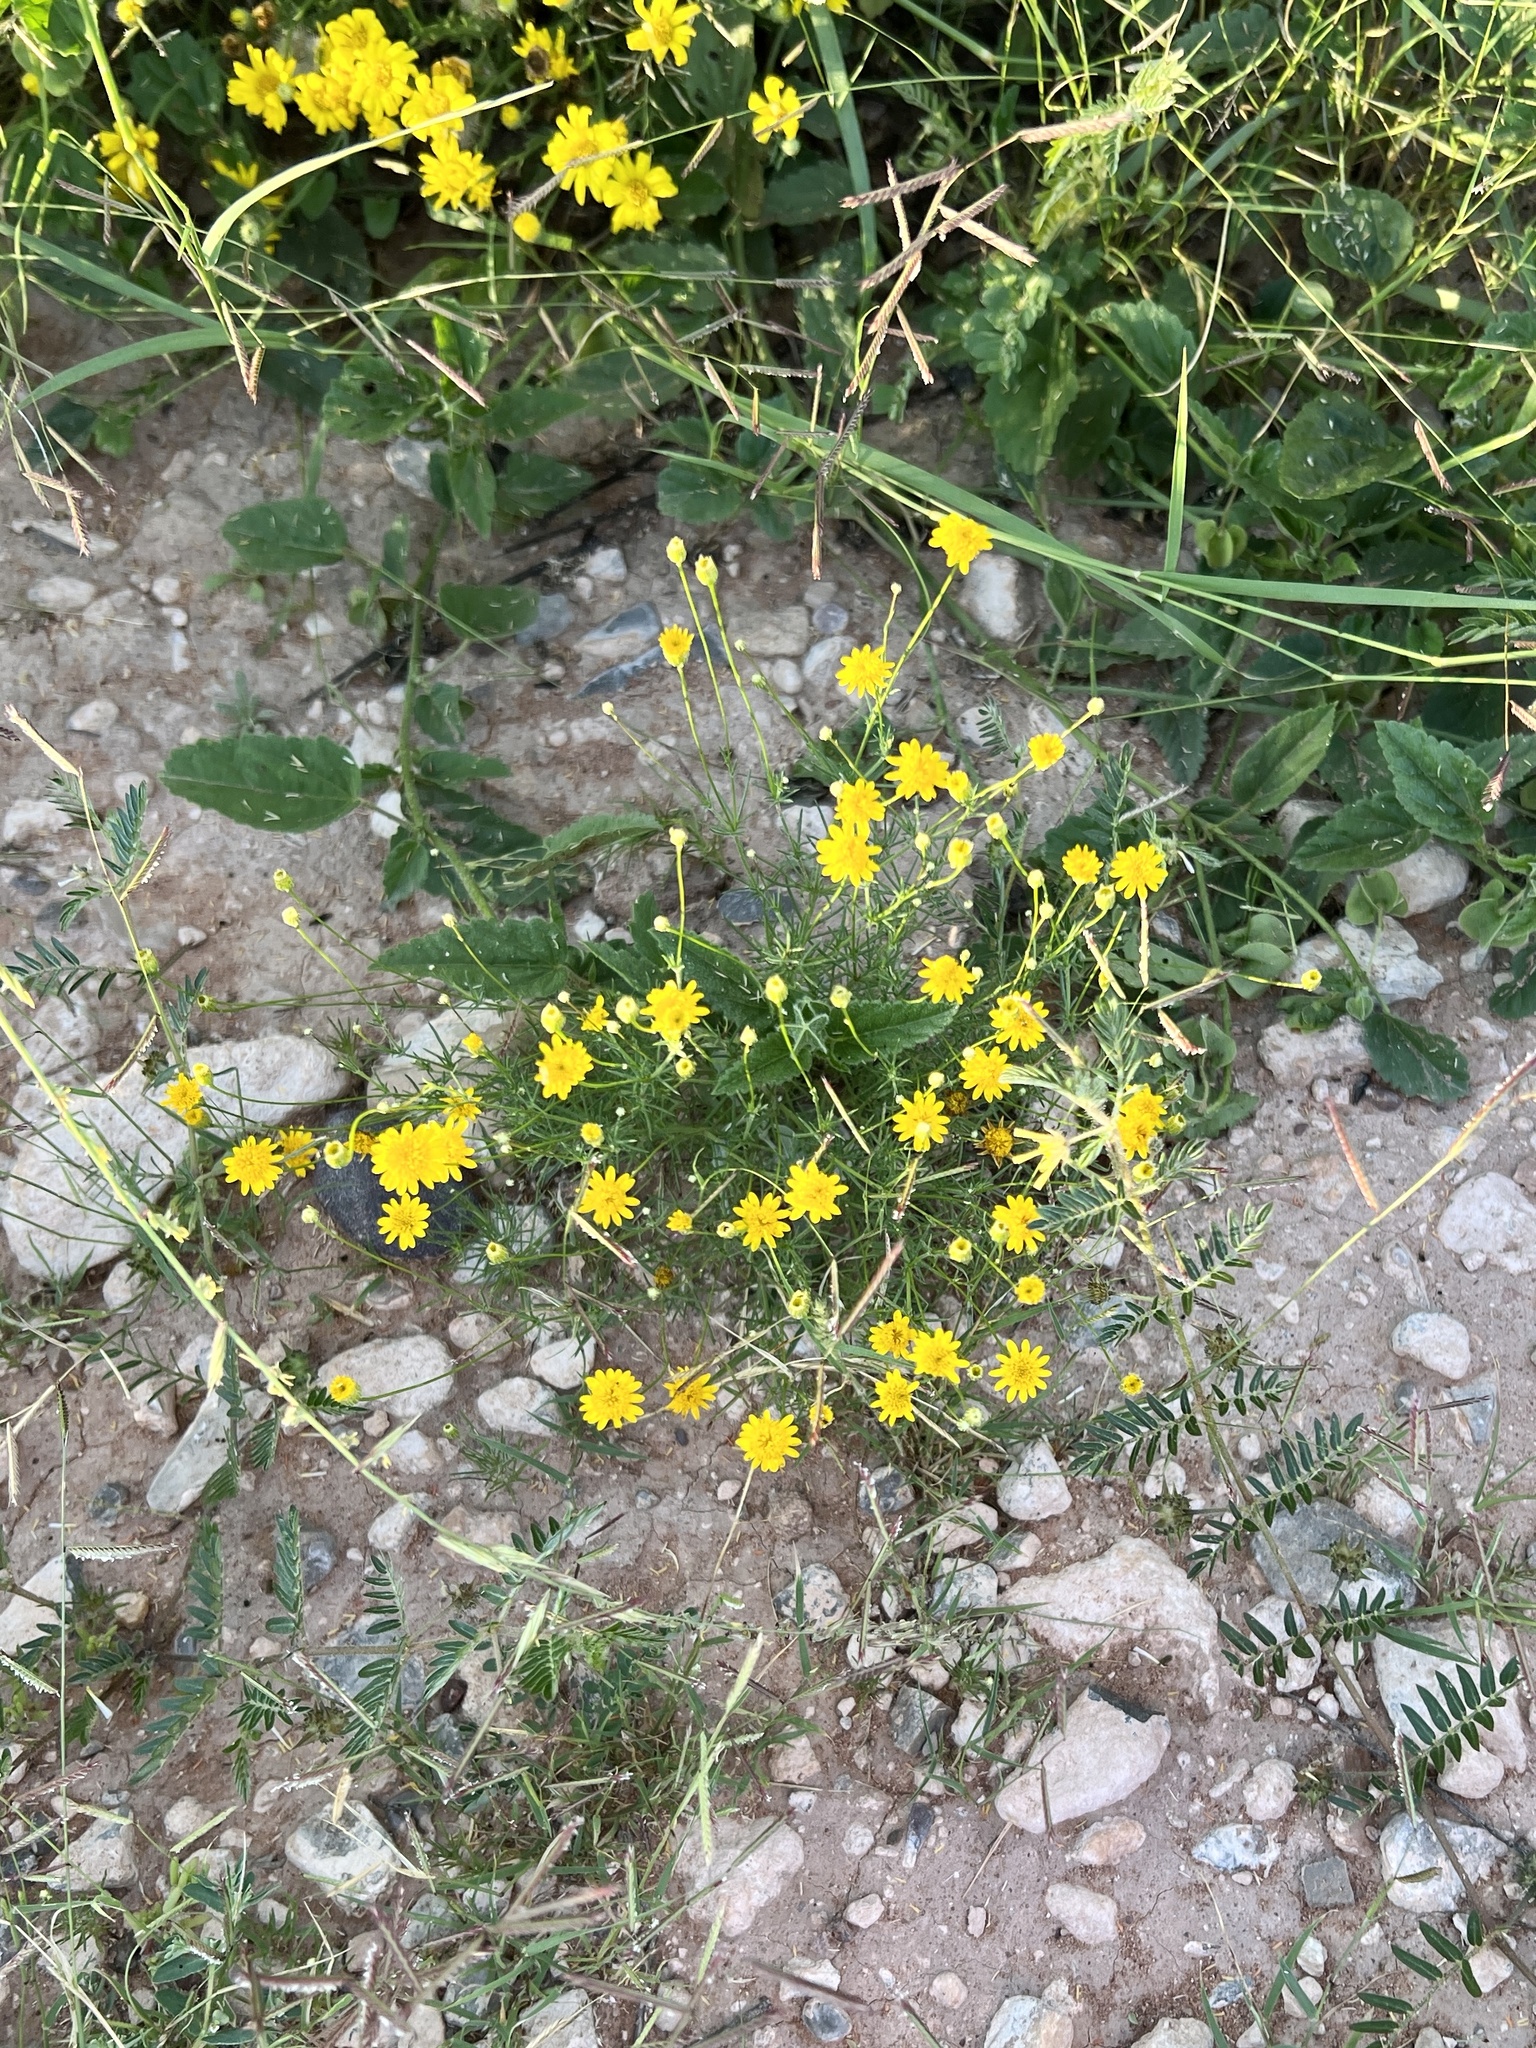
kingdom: Plantae
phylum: Tracheophyta
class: Magnoliopsida
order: Asterales
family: Asteraceae
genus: Thymophylla
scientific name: Thymophylla pentachaeta
